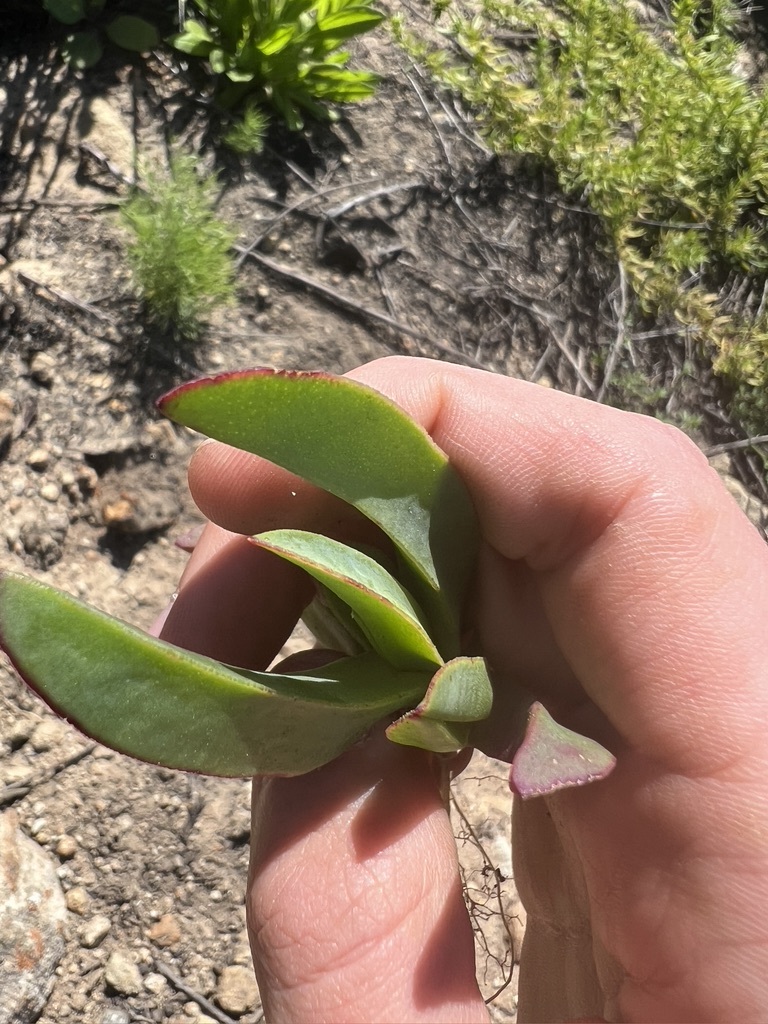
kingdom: Plantae
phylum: Tracheophyta
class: Magnoliopsida
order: Caryophyllales
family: Aizoaceae
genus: Carpobrotus
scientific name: Carpobrotus edulis
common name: Hottentot-fig
